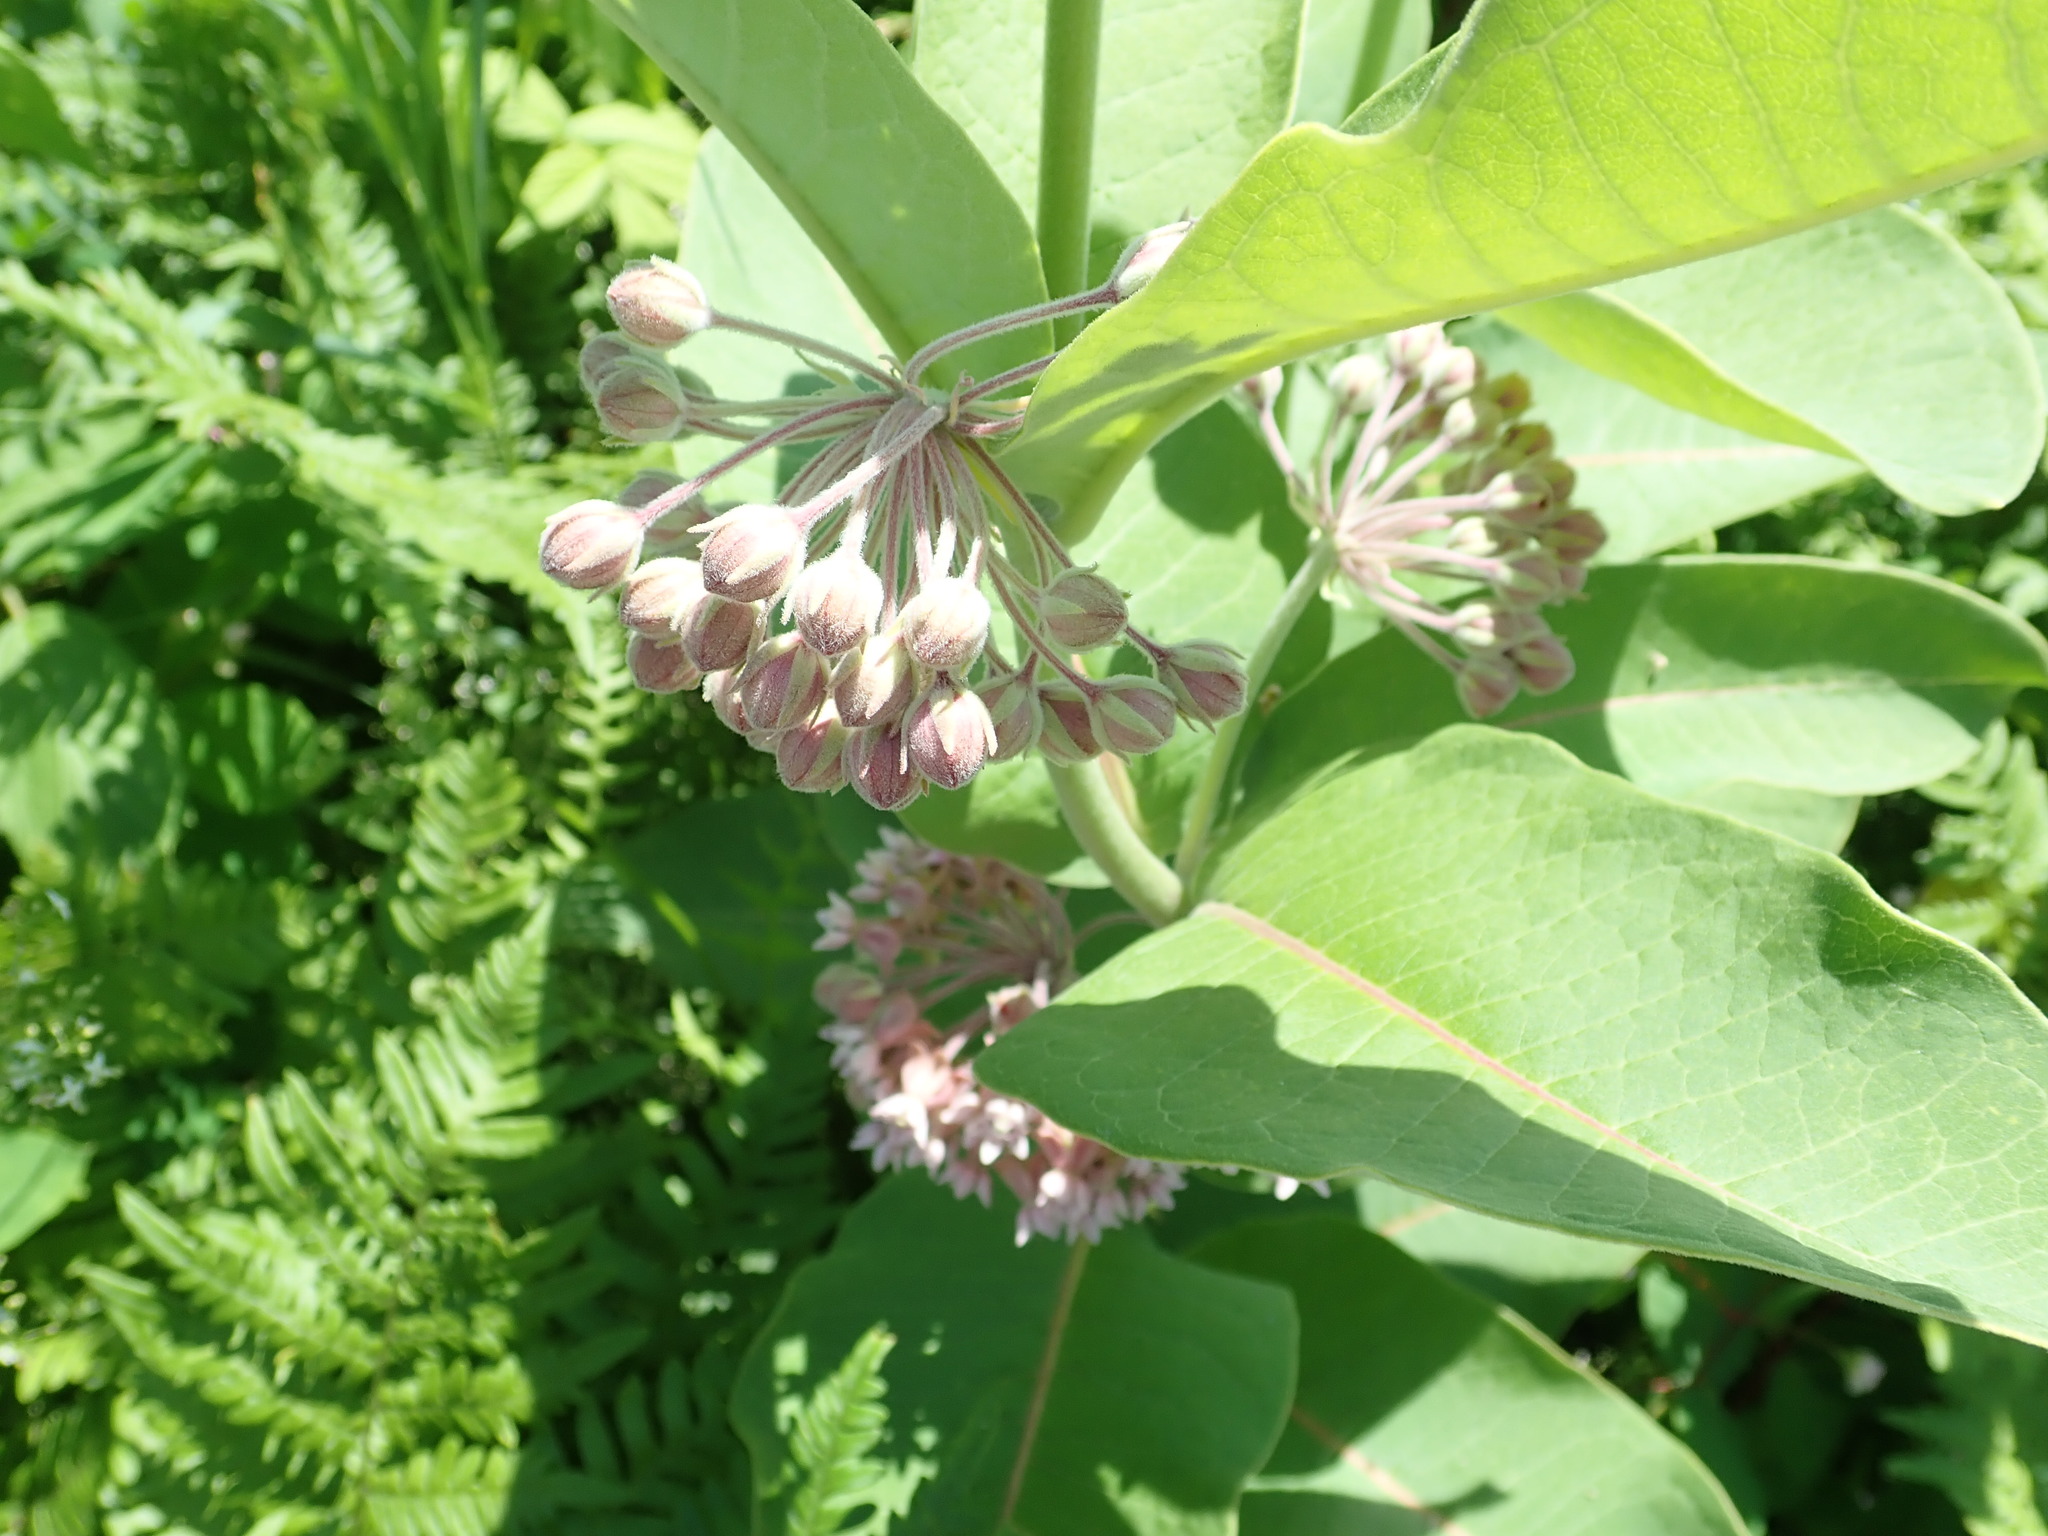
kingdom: Plantae
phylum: Tracheophyta
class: Magnoliopsida
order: Gentianales
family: Apocynaceae
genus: Asclepias
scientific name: Asclepias syriaca
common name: Common milkweed
